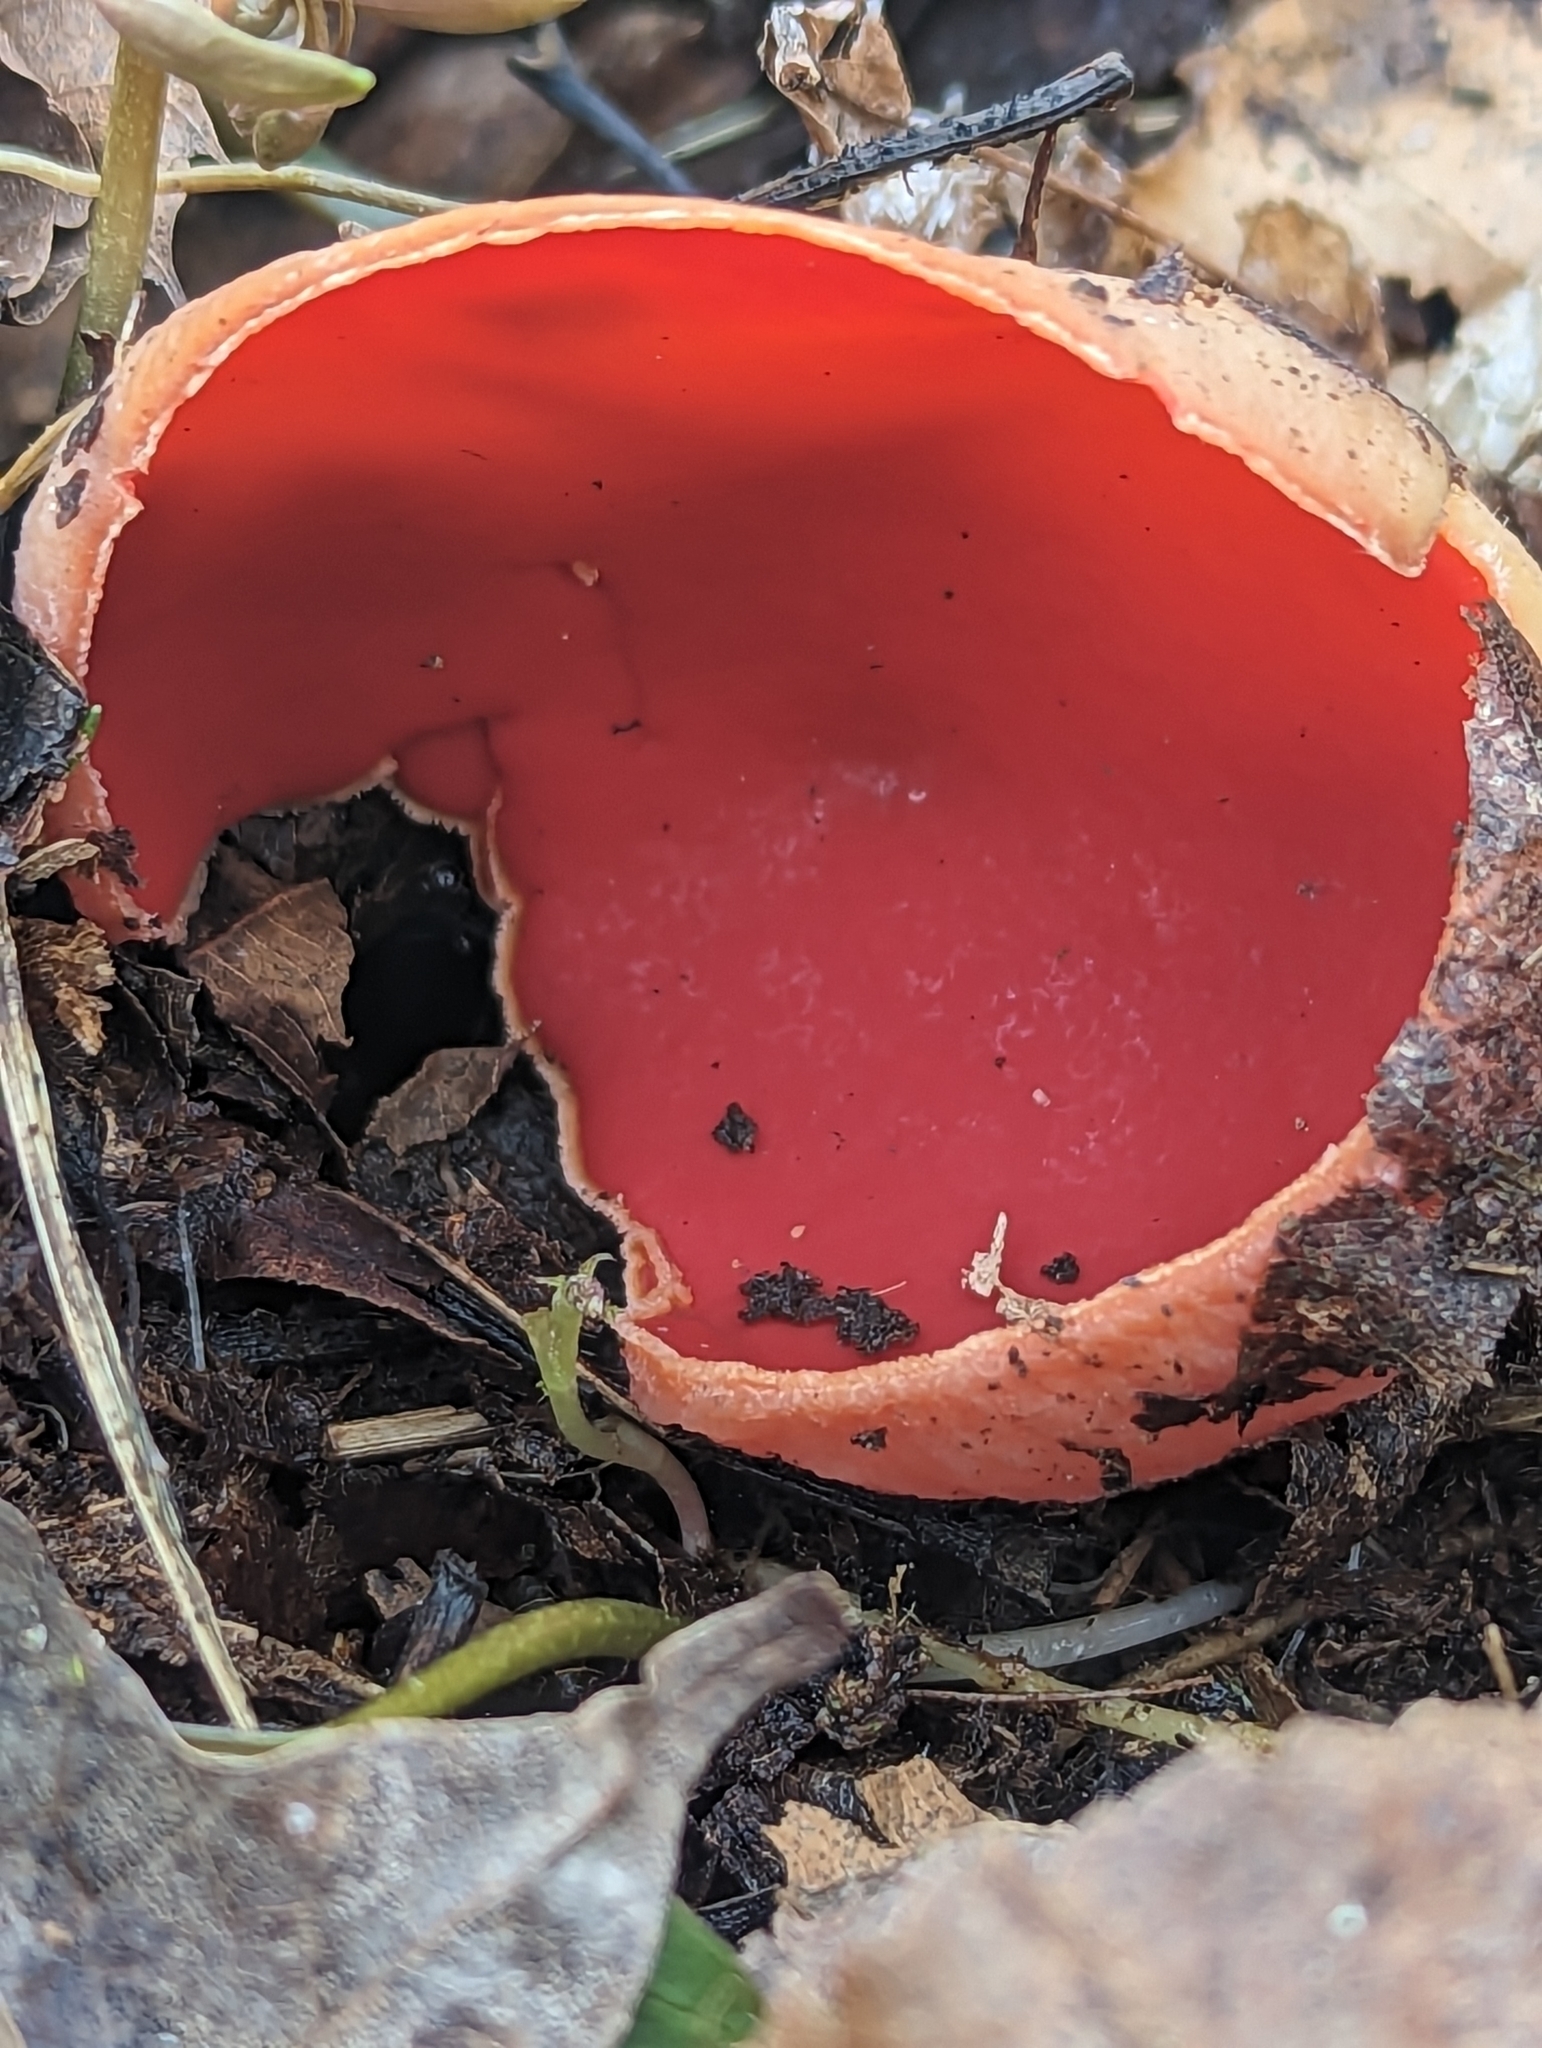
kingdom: Fungi
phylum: Ascomycota
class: Pezizomycetes
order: Pezizales
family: Sarcoscyphaceae
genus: Sarcoscypha
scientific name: Sarcoscypha austriaca
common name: Scarlet elfcup
